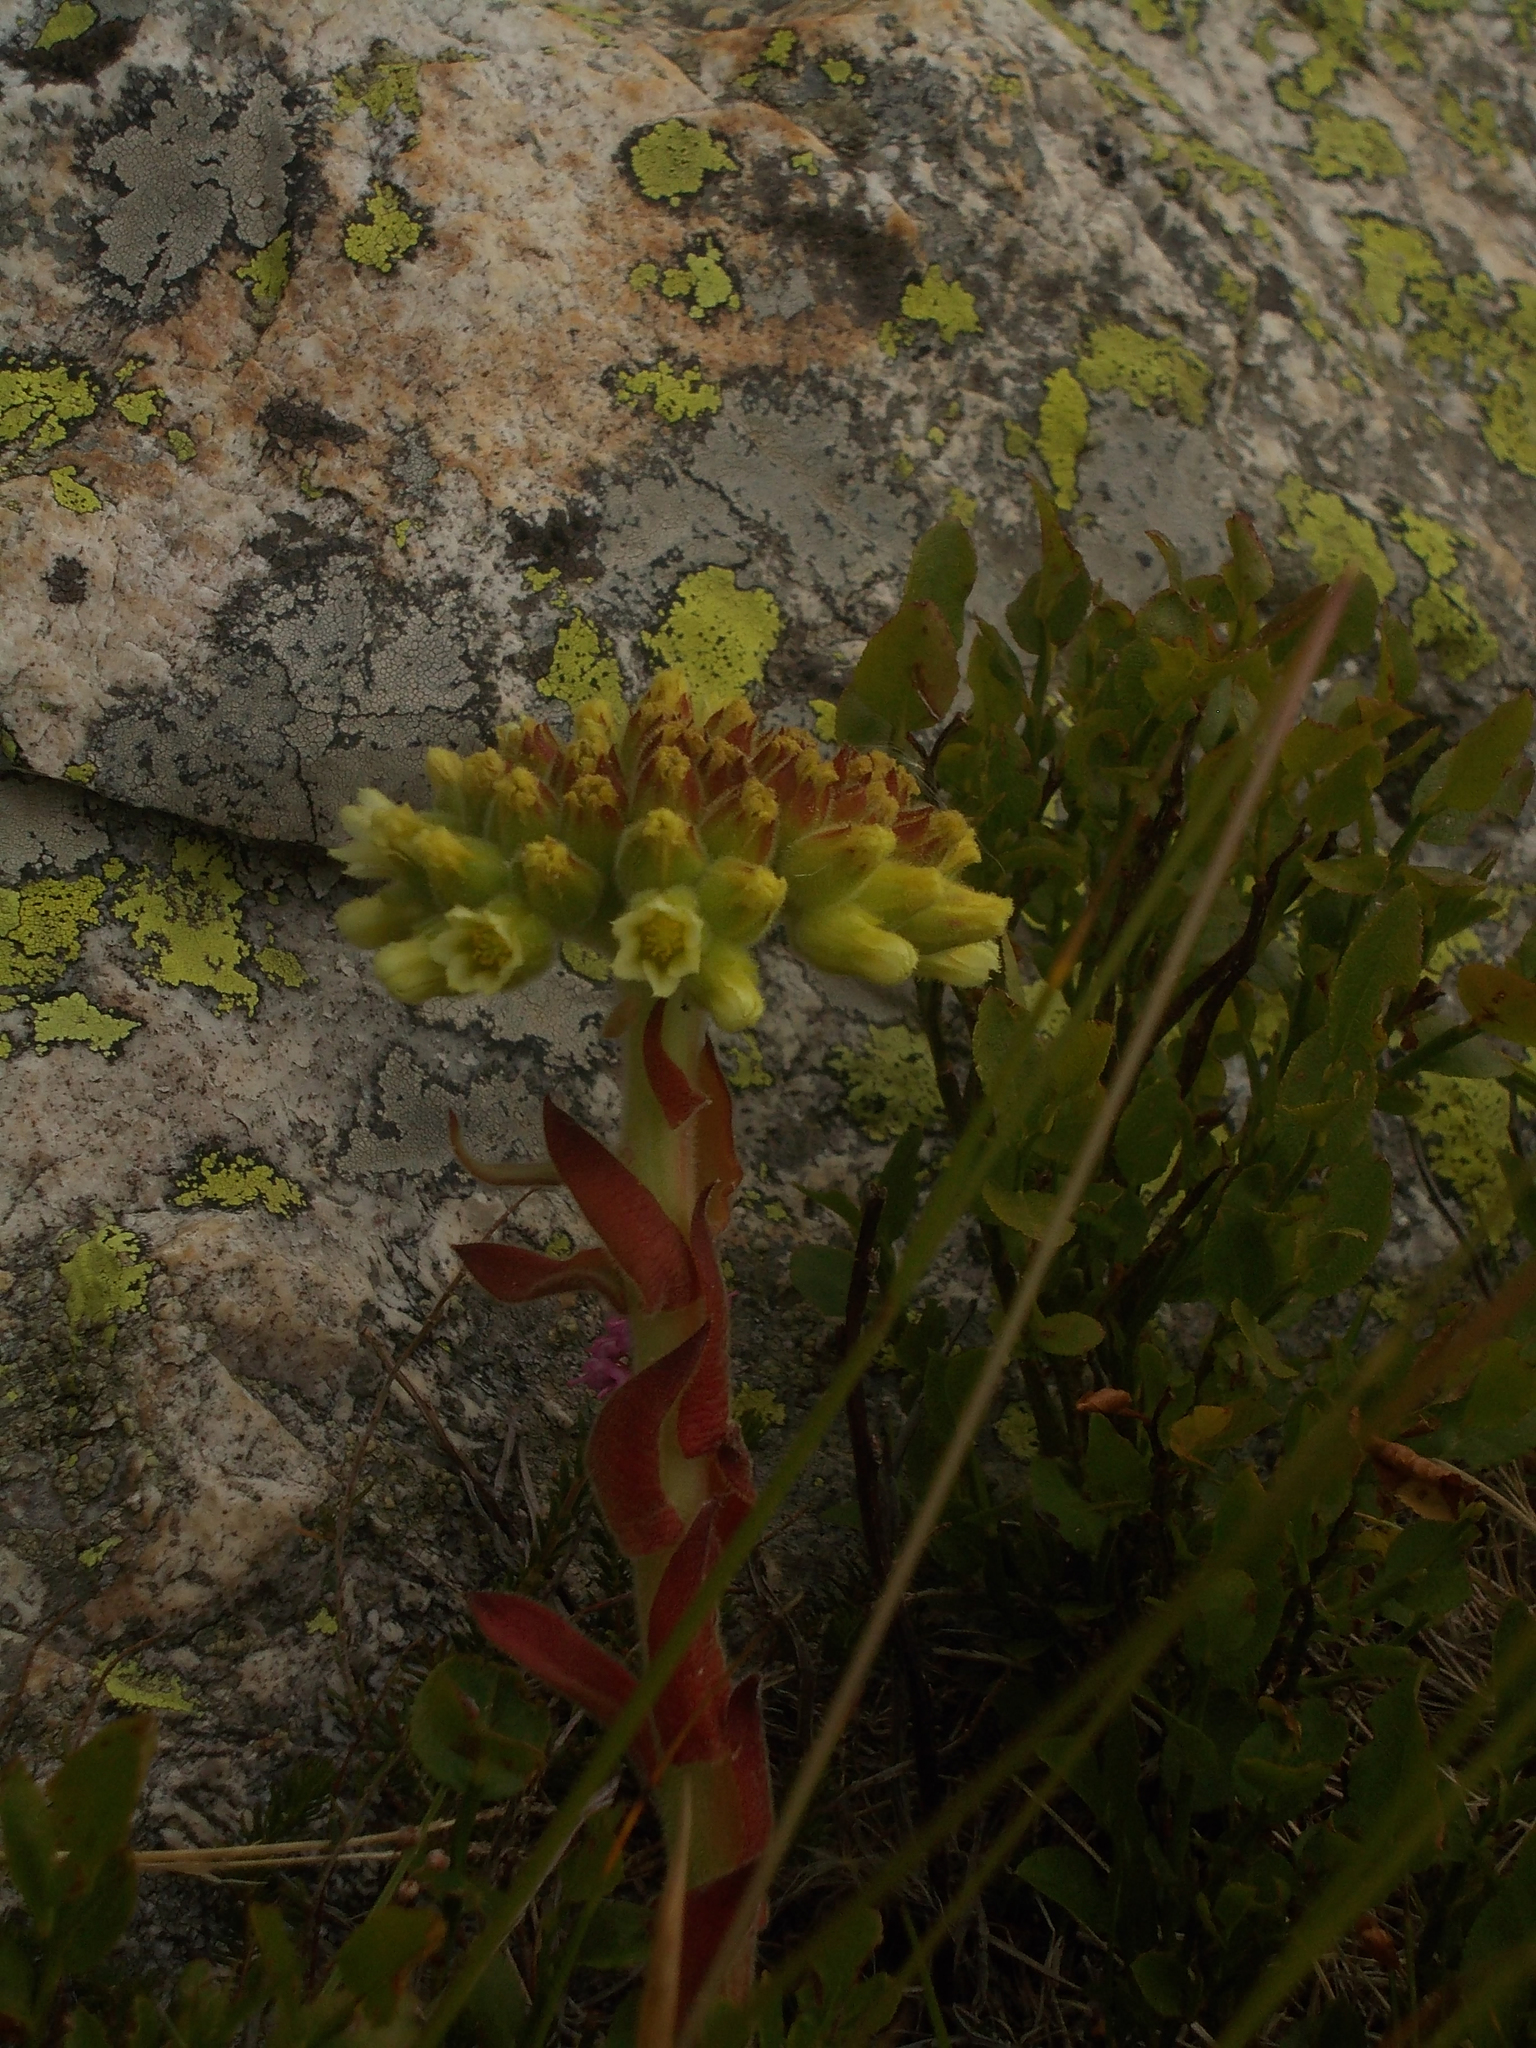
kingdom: Plantae
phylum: Tracheophyta
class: Magnoliopsida
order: Saxifragales
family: Crassulaceae
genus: Sempervivum
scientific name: Sempervivum heuffelii
